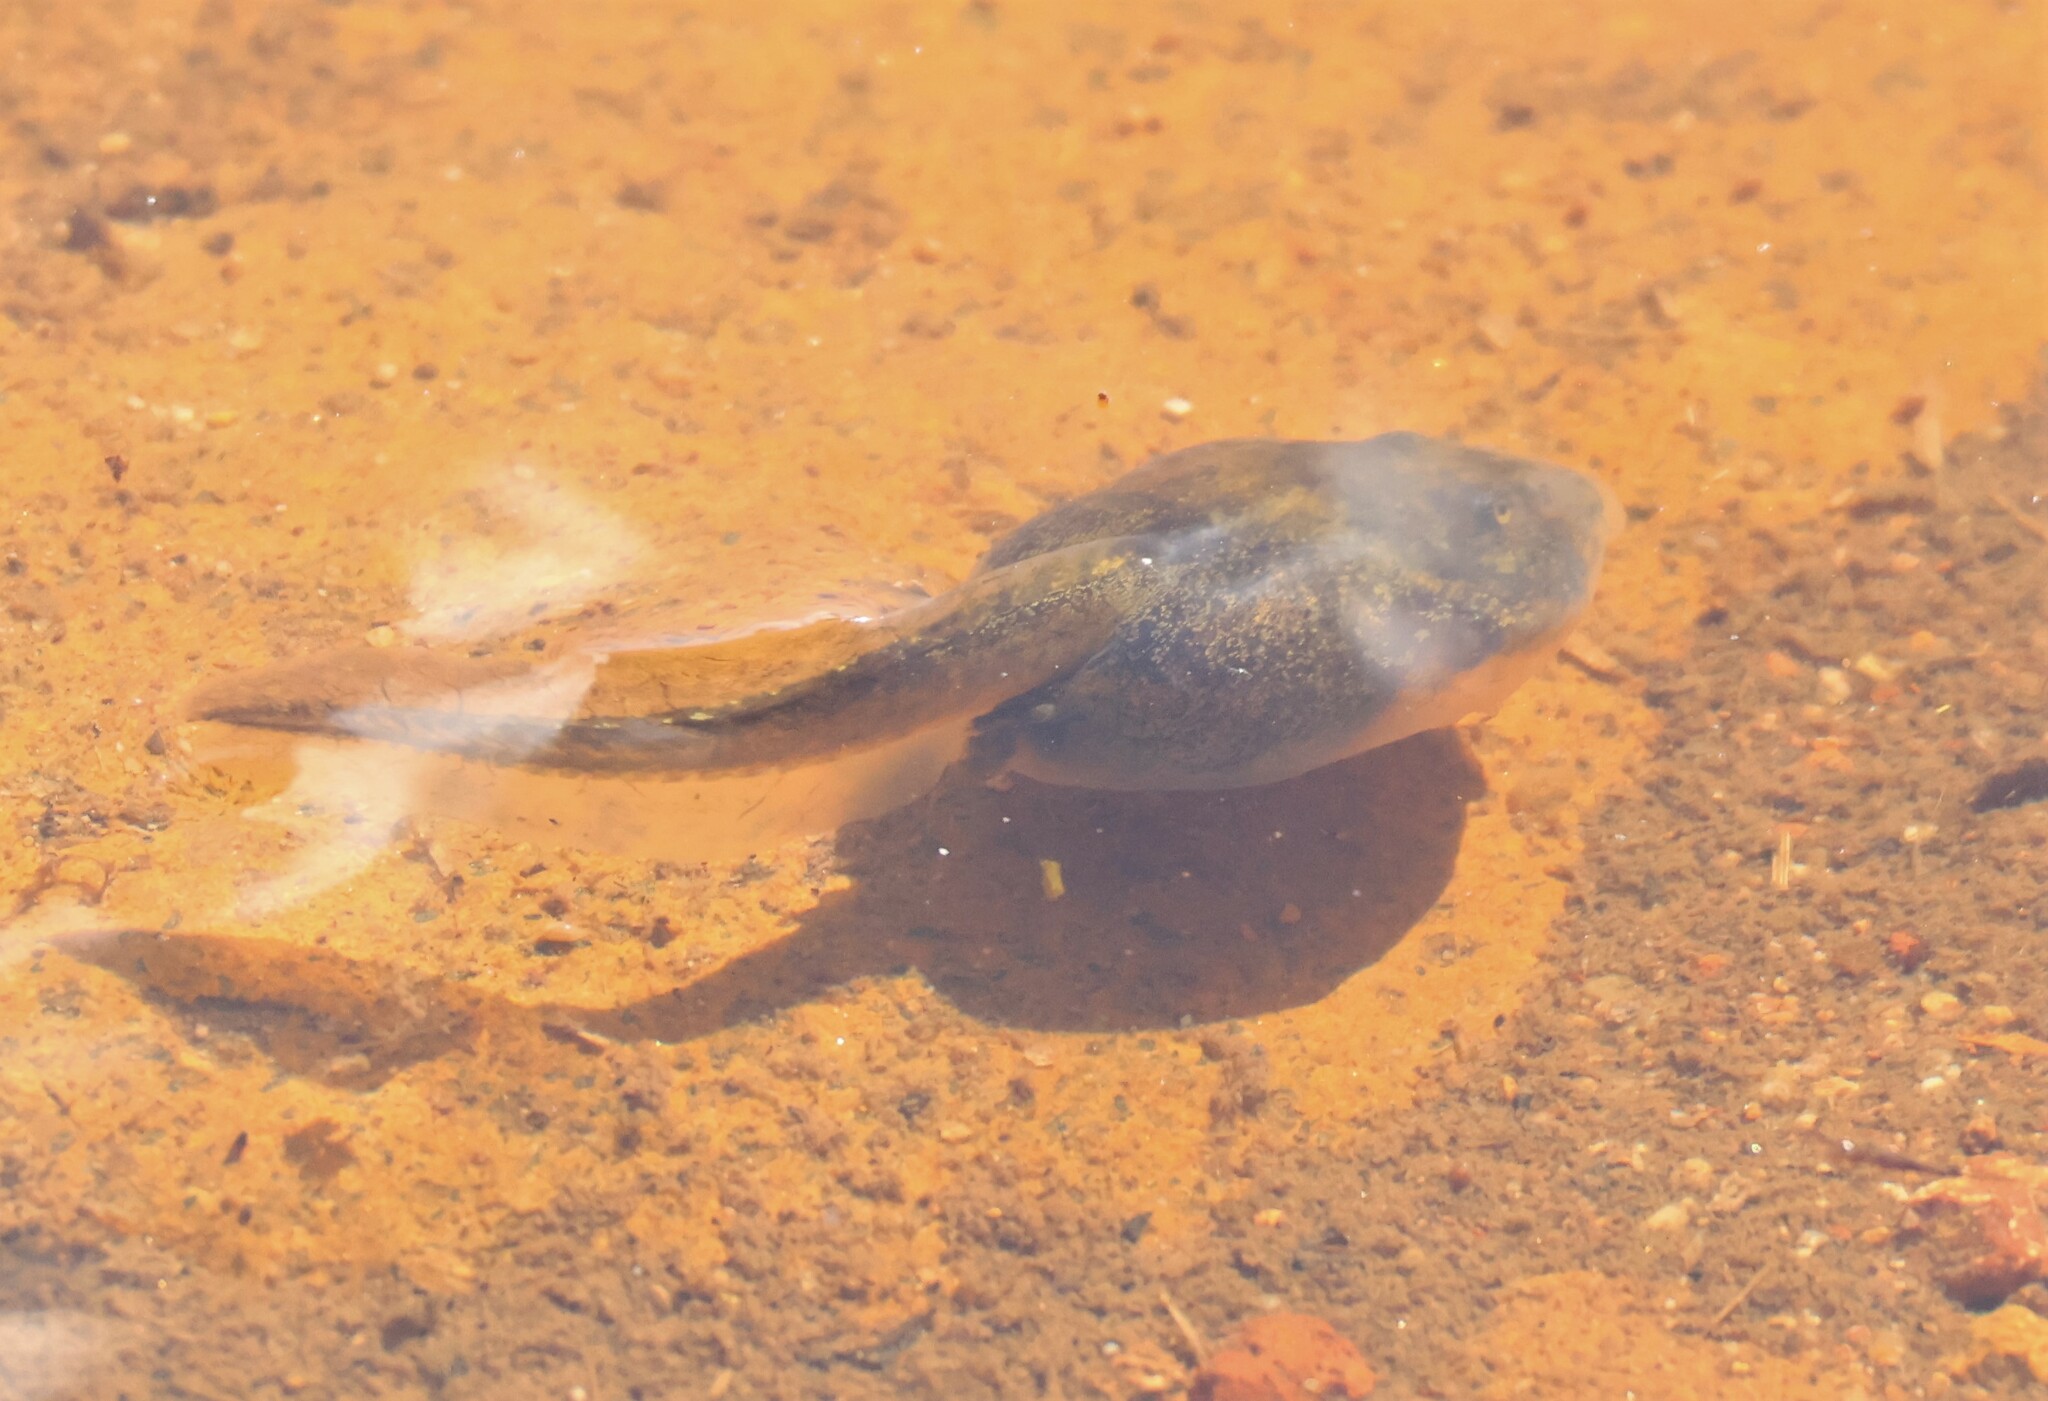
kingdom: Animalia
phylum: Chordata
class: Amphibia
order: Anura
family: Scaphiopodidae
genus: Spea
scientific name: Spea hammondii
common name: Western spadefoot toad
